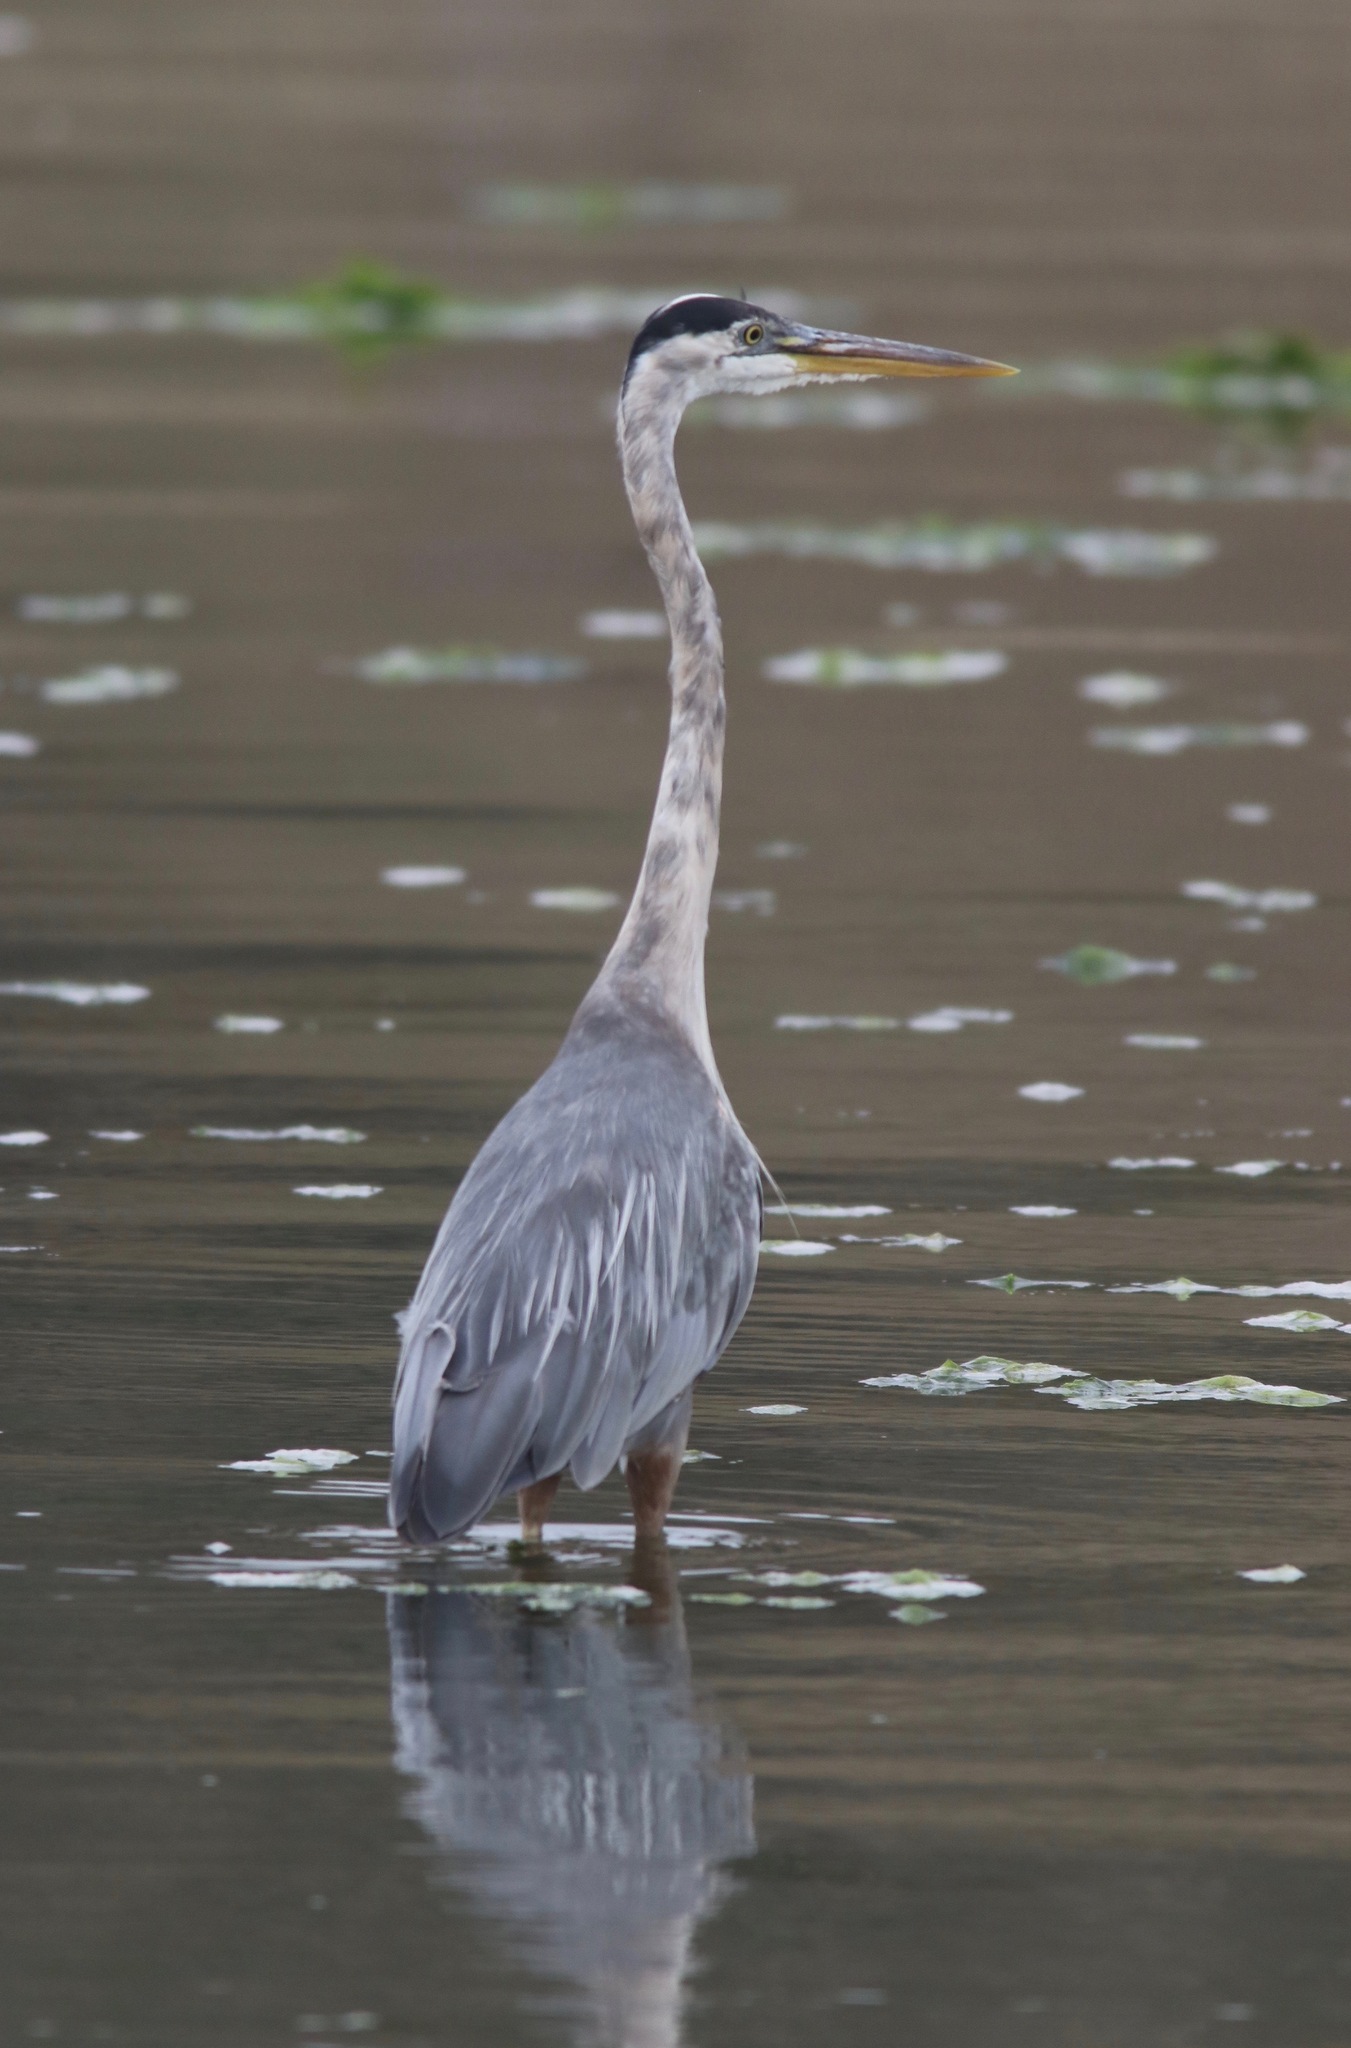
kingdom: Animalia
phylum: Chordata
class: Aves
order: Pelecaniformes
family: Ardeidae
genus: Ardea
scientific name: Ardea herodias
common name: Great blue heron
